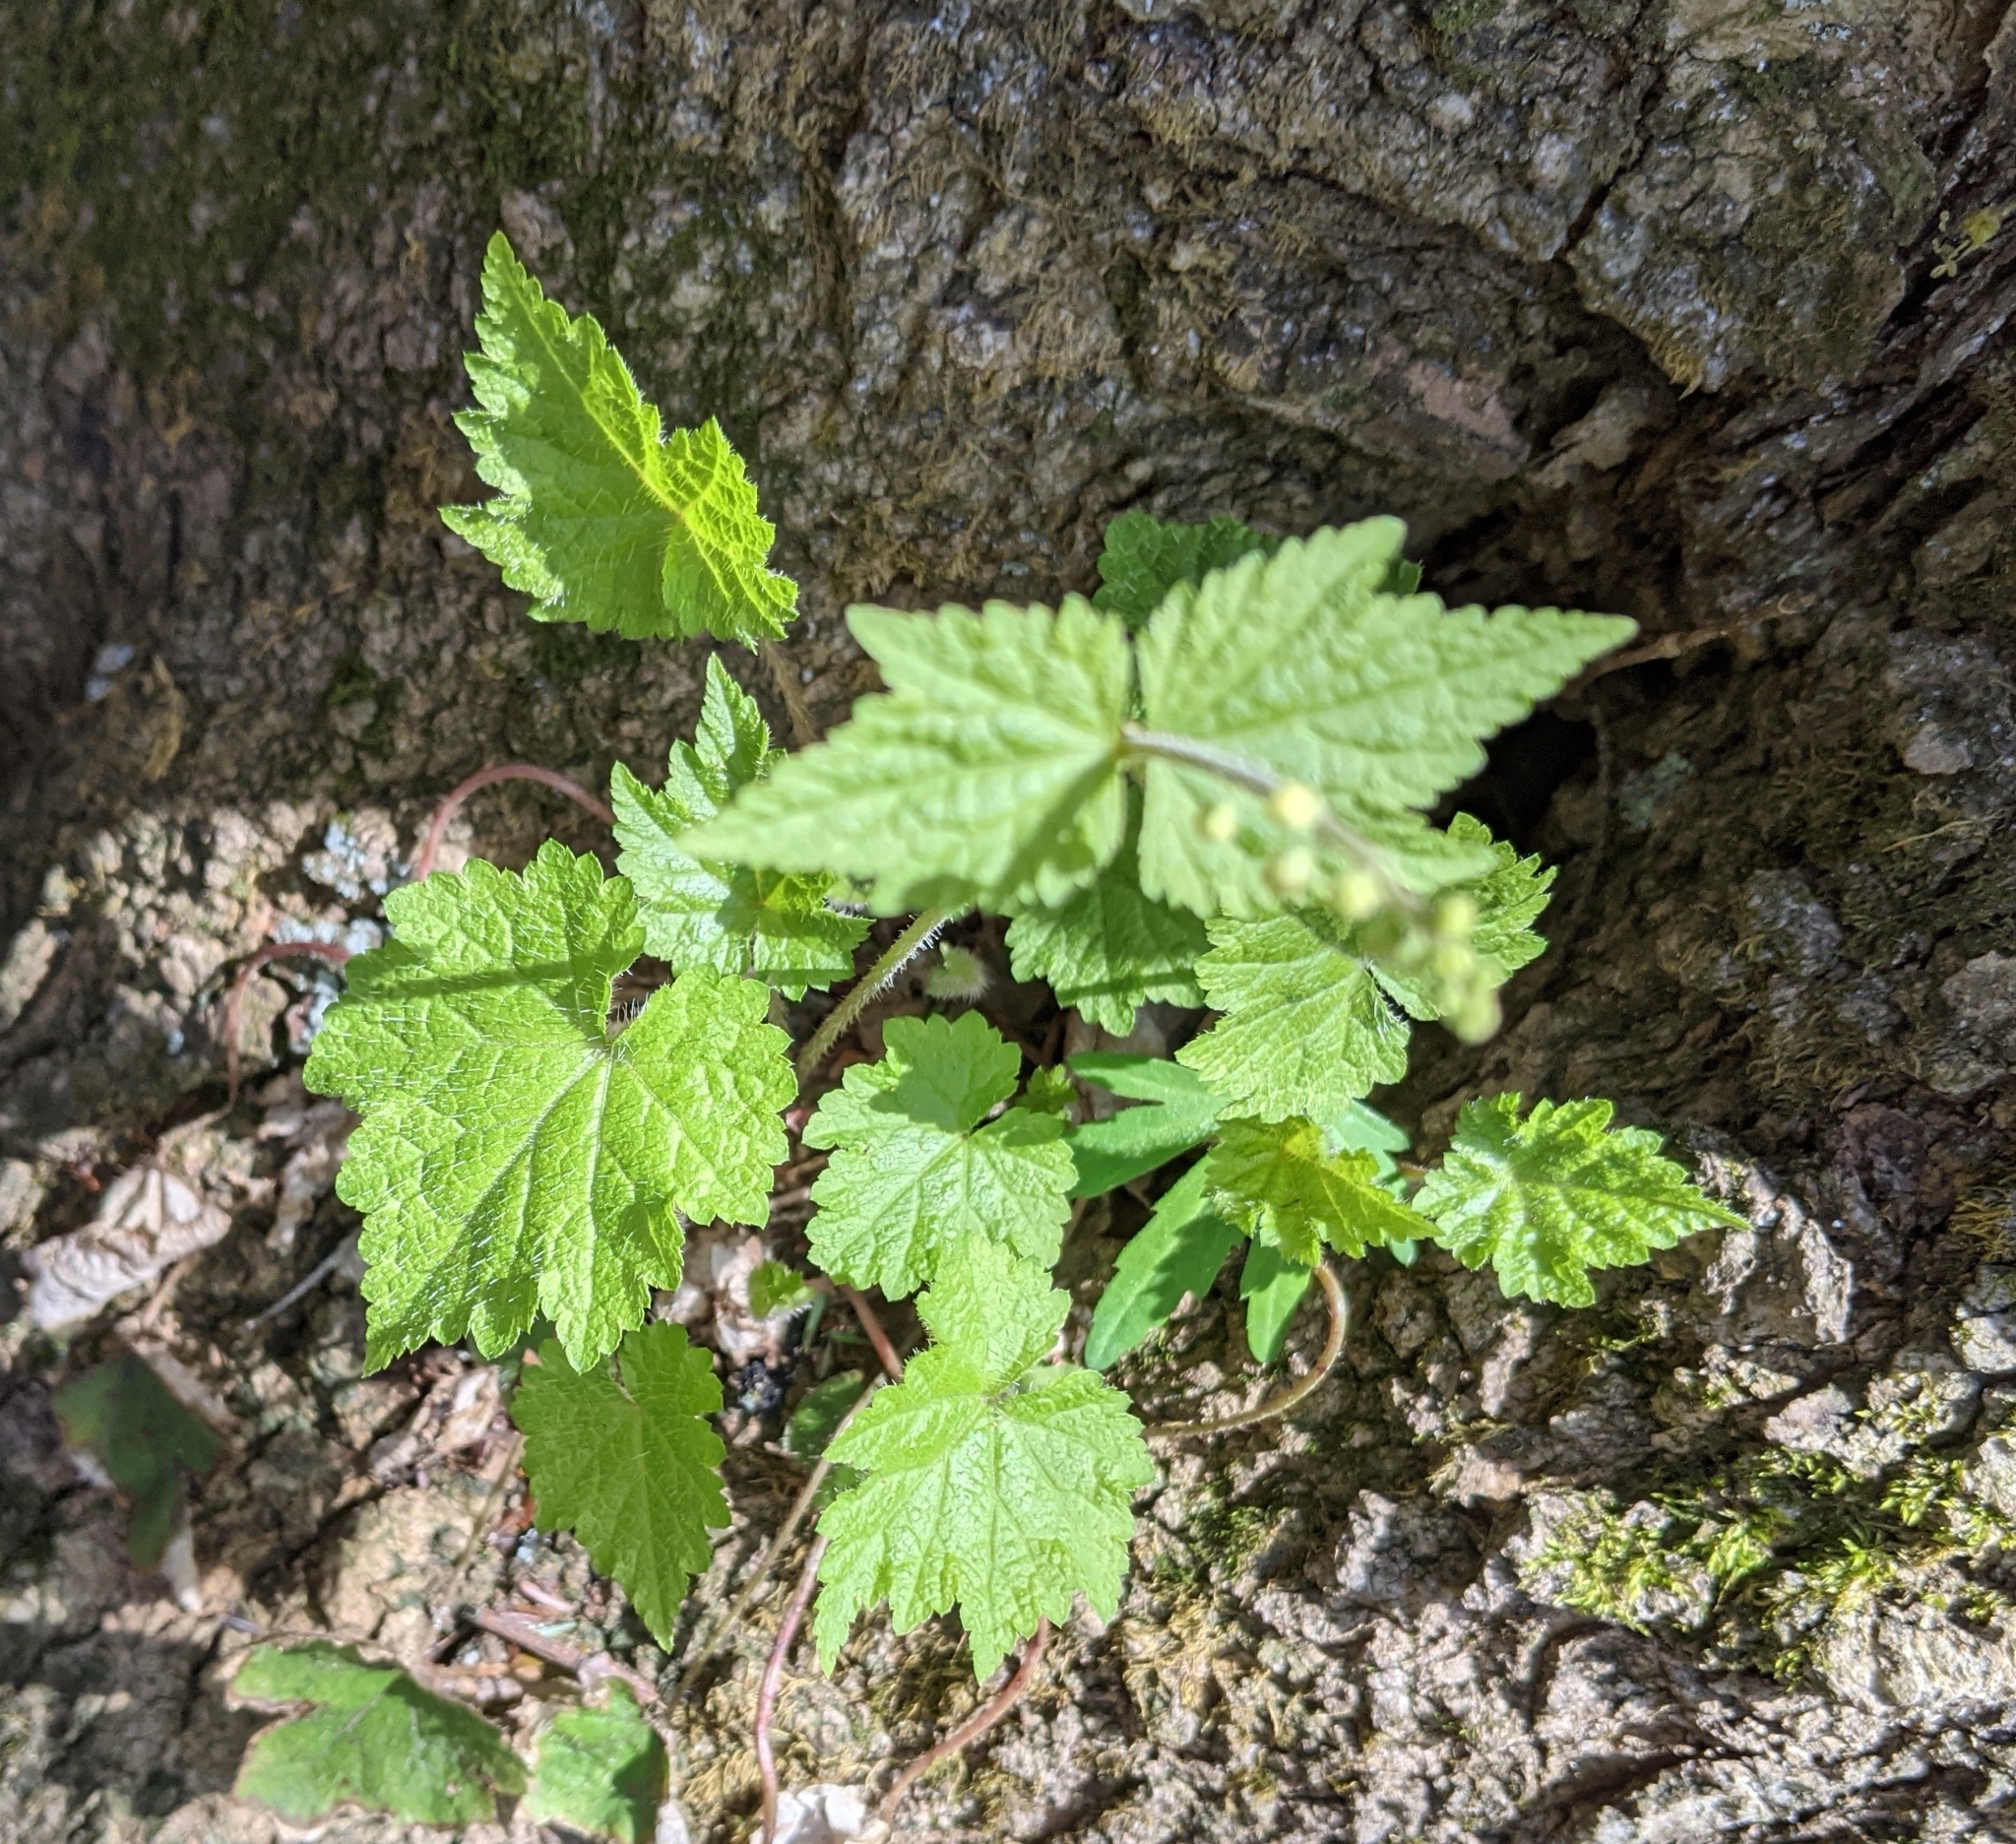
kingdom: Plantae
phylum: Tracheophyta
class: Magnoliopsida
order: Saxifragales
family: Saxifragaceae
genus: Mitella
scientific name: Mitella diphylla
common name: Coolwort
